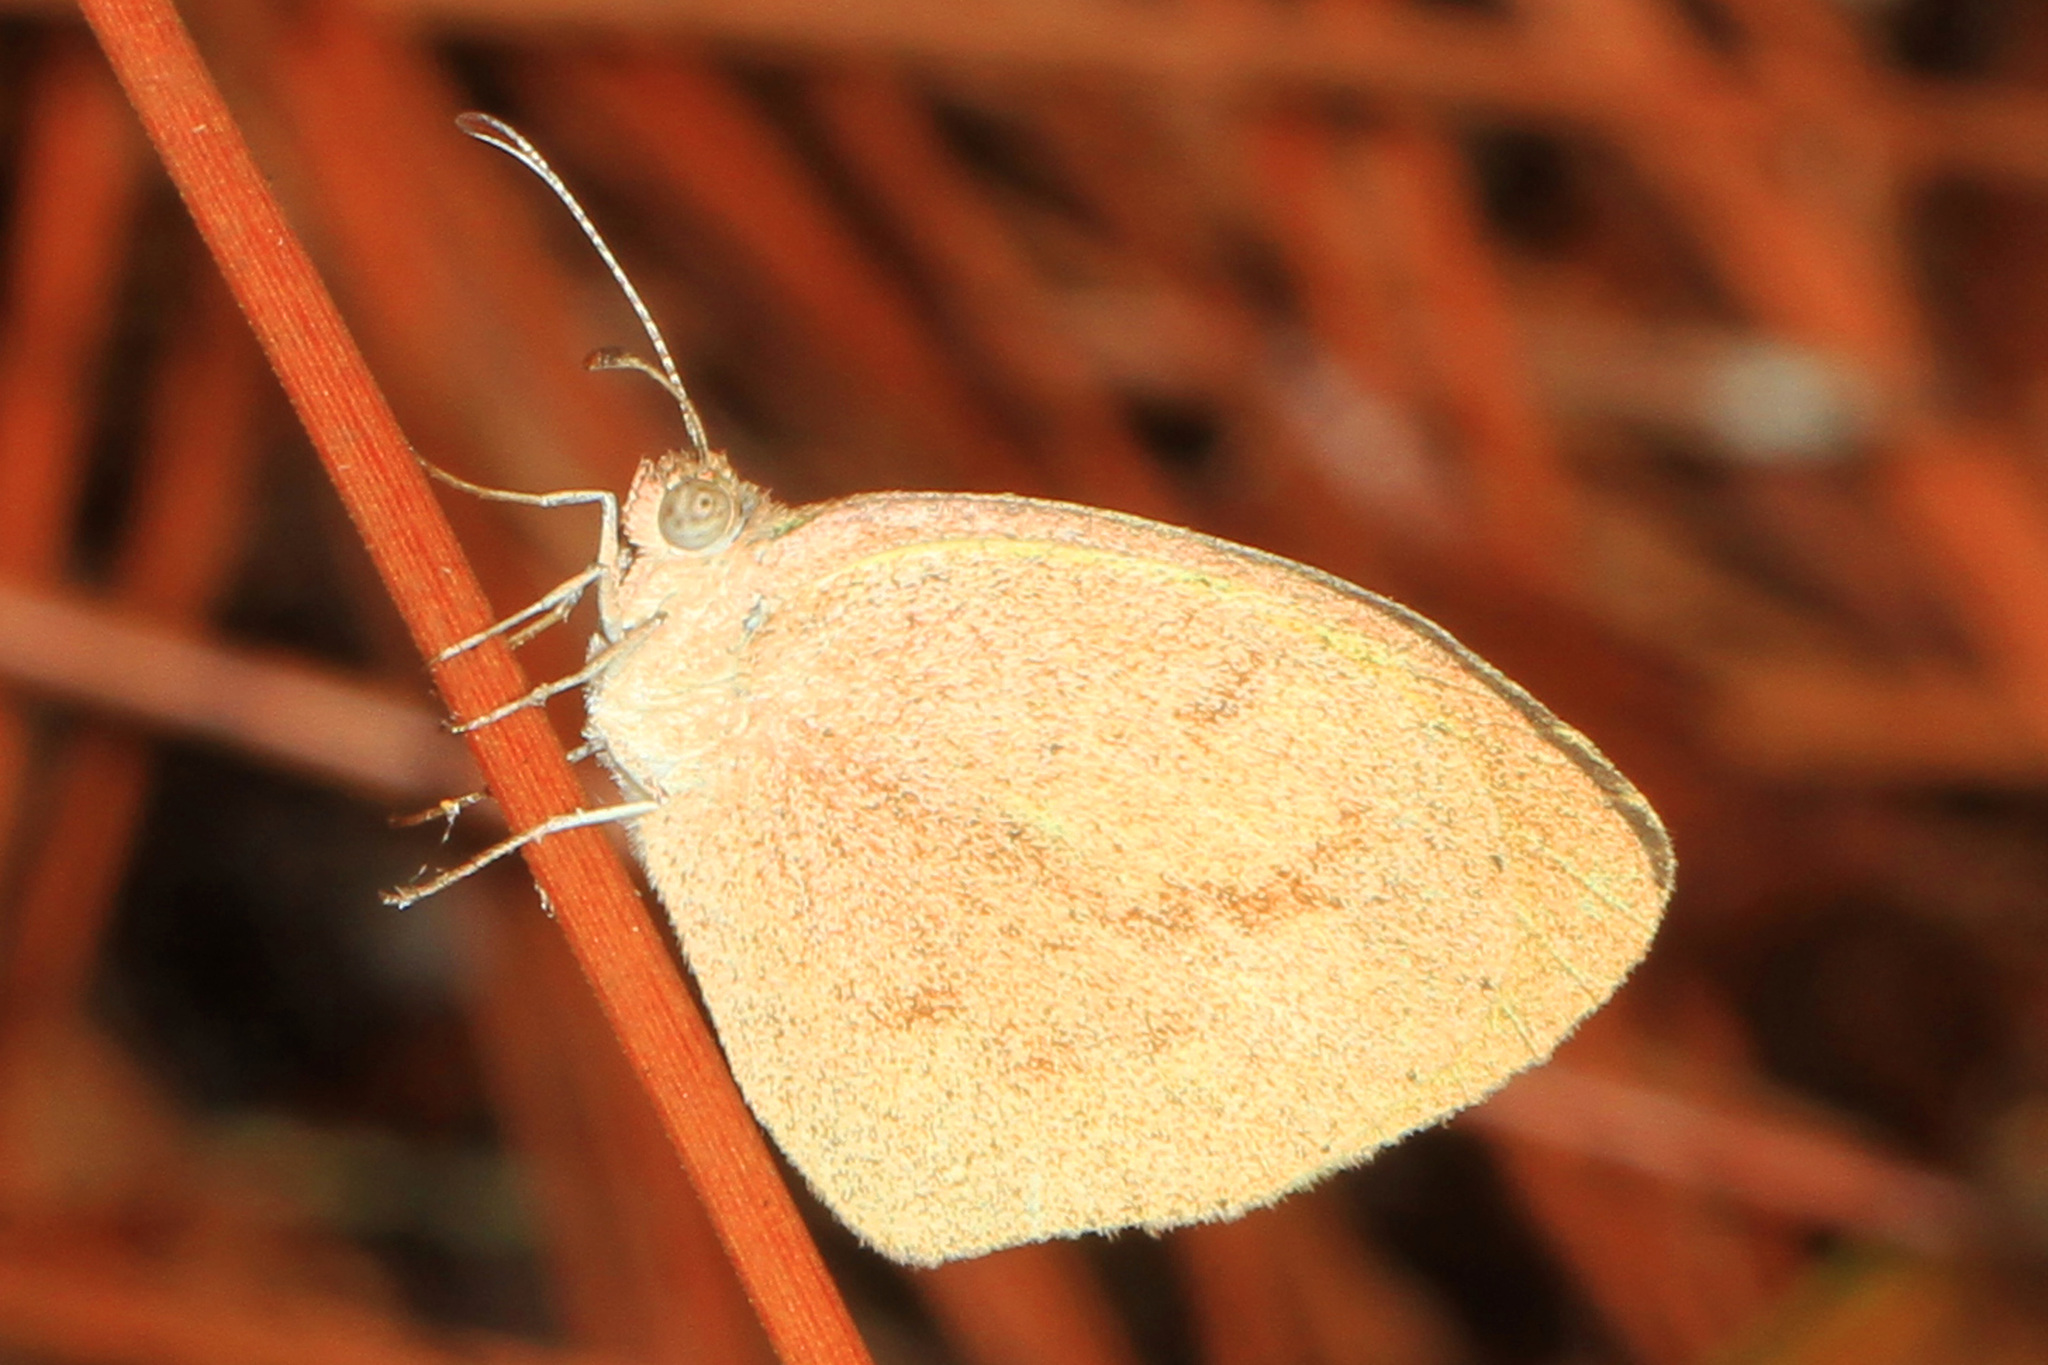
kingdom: Animalia
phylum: Arthropoda
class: Insecta
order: Lepidoptera
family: Pieridae
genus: Eurema
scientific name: Eurema daira
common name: Barred sulphur
